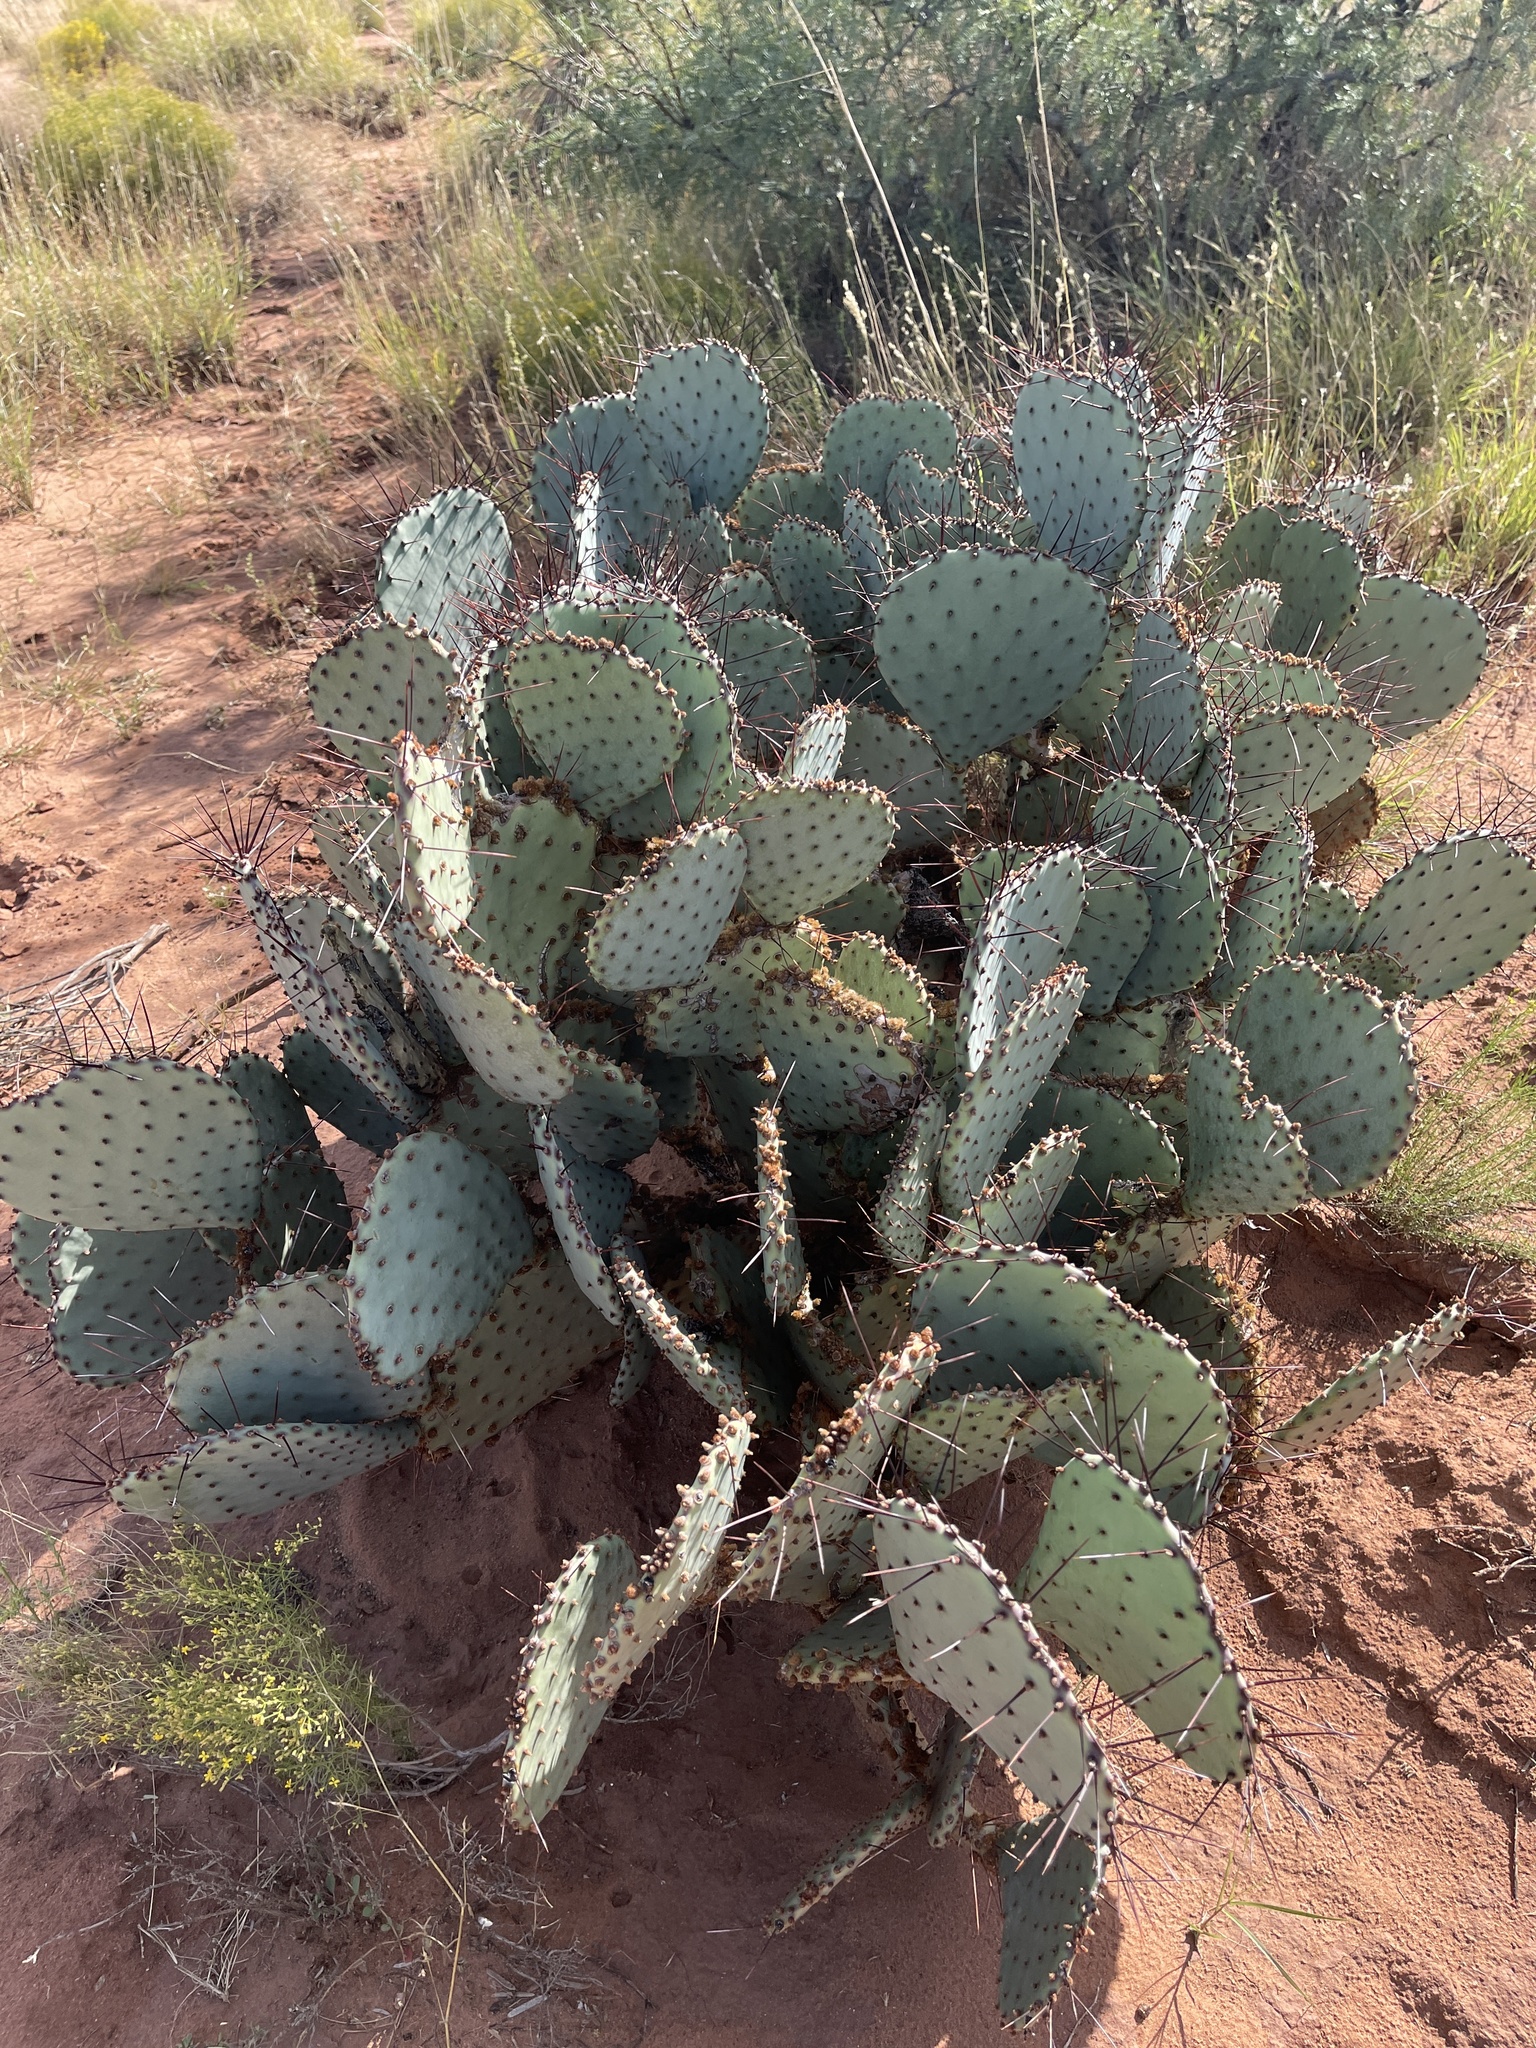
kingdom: Plantae
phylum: Tracheophyta
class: Magnoliopsida
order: Caryophyllales
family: Cactaceae
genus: Opuntia
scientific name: Opuntia macrocentra
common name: Purple prickly-pear
